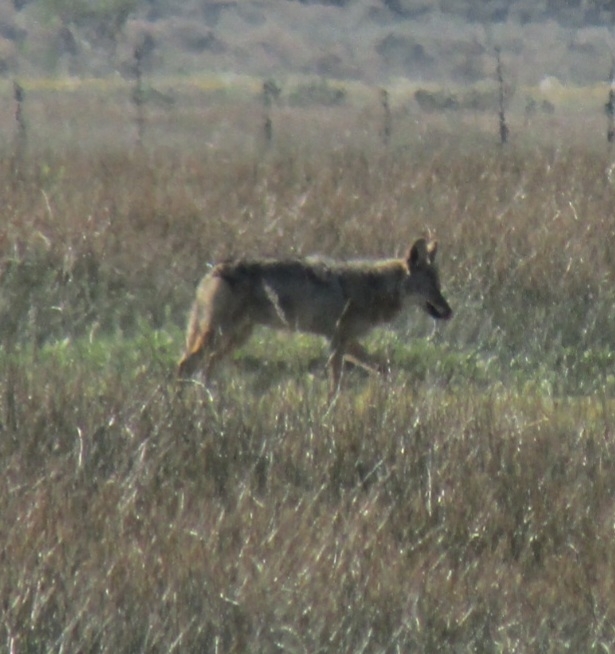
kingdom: Animalia
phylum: Chordata
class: Mammalia
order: Carnivora
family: Canidae
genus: Canis
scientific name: Canis latrans
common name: Coyote
